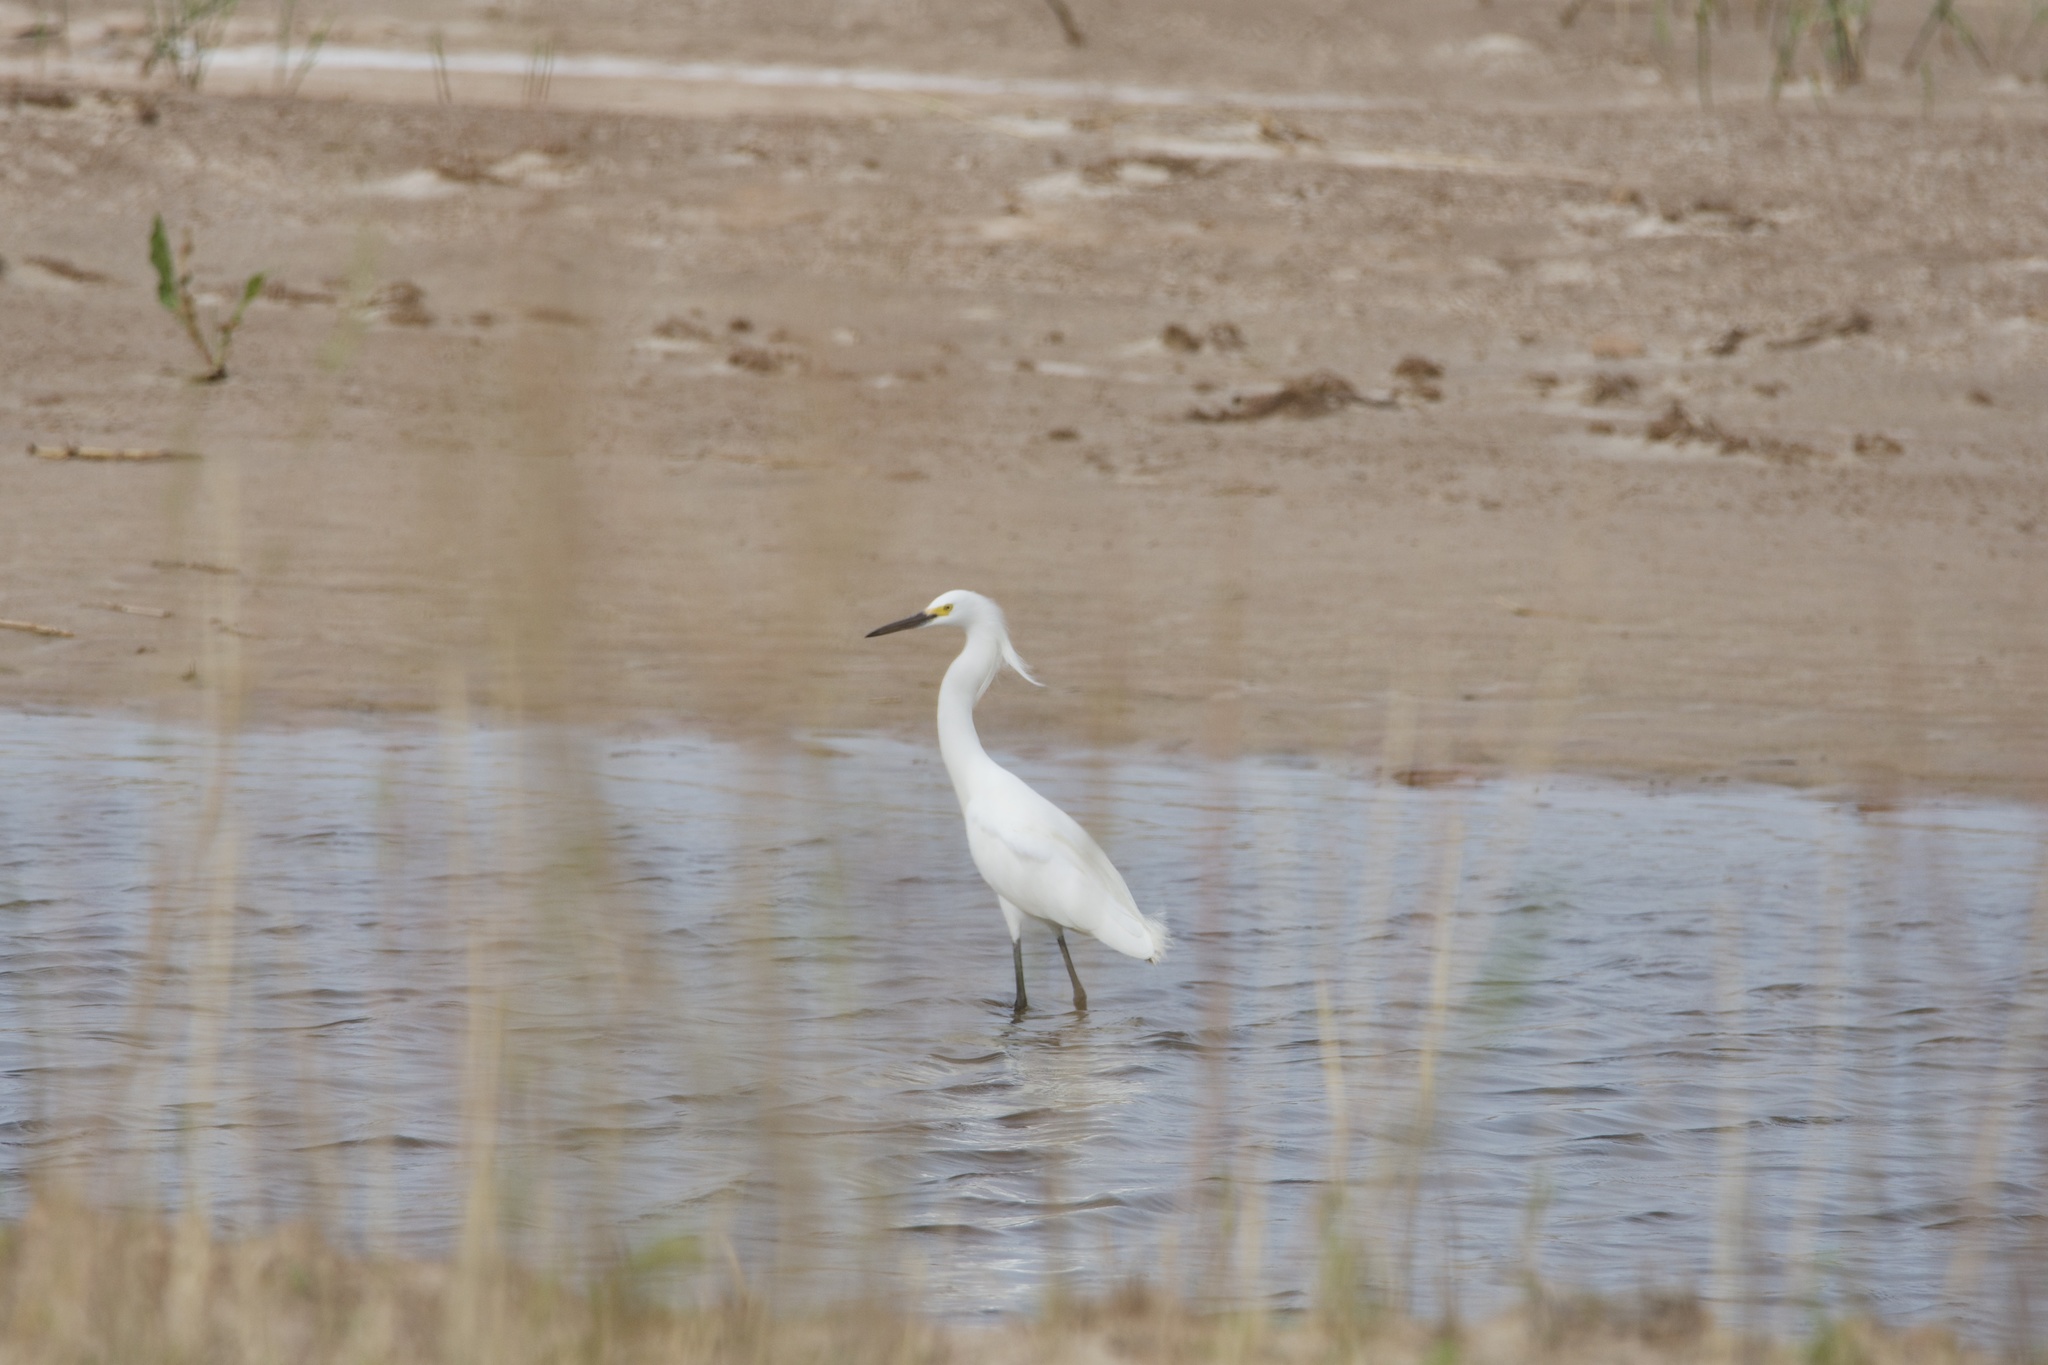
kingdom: Animalia
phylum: Chordata
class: Aves
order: Pelecaniformes
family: Ardeidae
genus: Egretta
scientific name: Egretta thula
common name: Snowy egret
